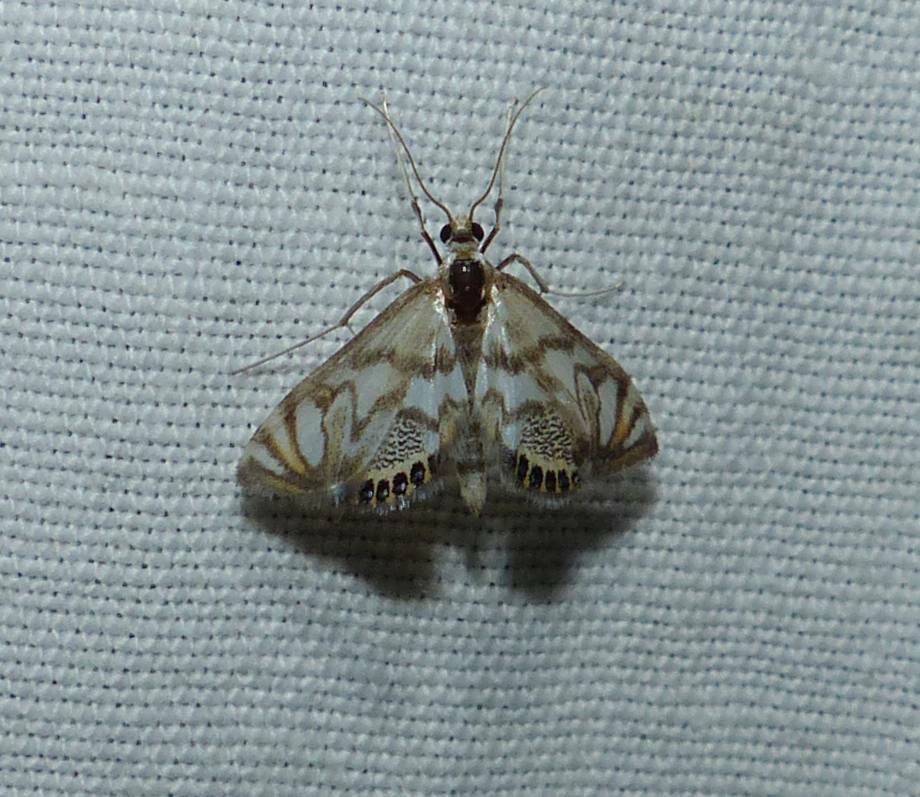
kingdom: Animalia
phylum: Arthropoda
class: Insecta
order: Lepidoptera
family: Crambidae
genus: Neocataclysta
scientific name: Neocataclysta magnificalis
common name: Scrollwork pyralid moth
